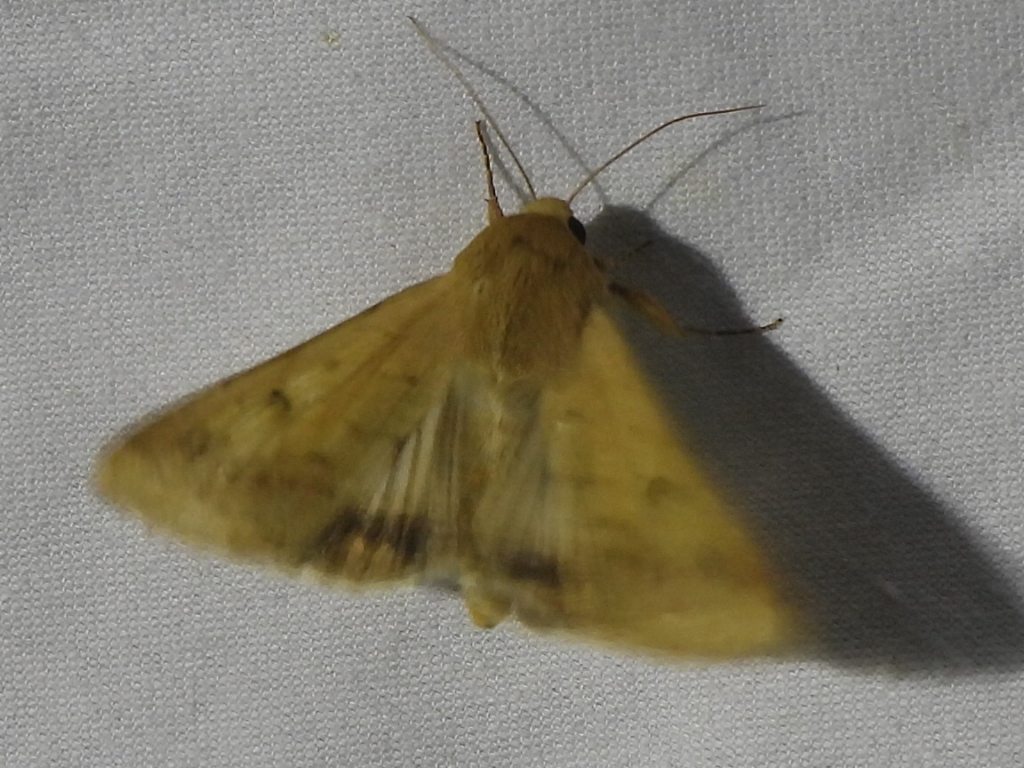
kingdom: Animalia
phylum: Arthropoda
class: Insecta
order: Lepidoptera
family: Noctuidae
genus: Helicoverpa
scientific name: Helicoverpa zea
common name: Bollworm
